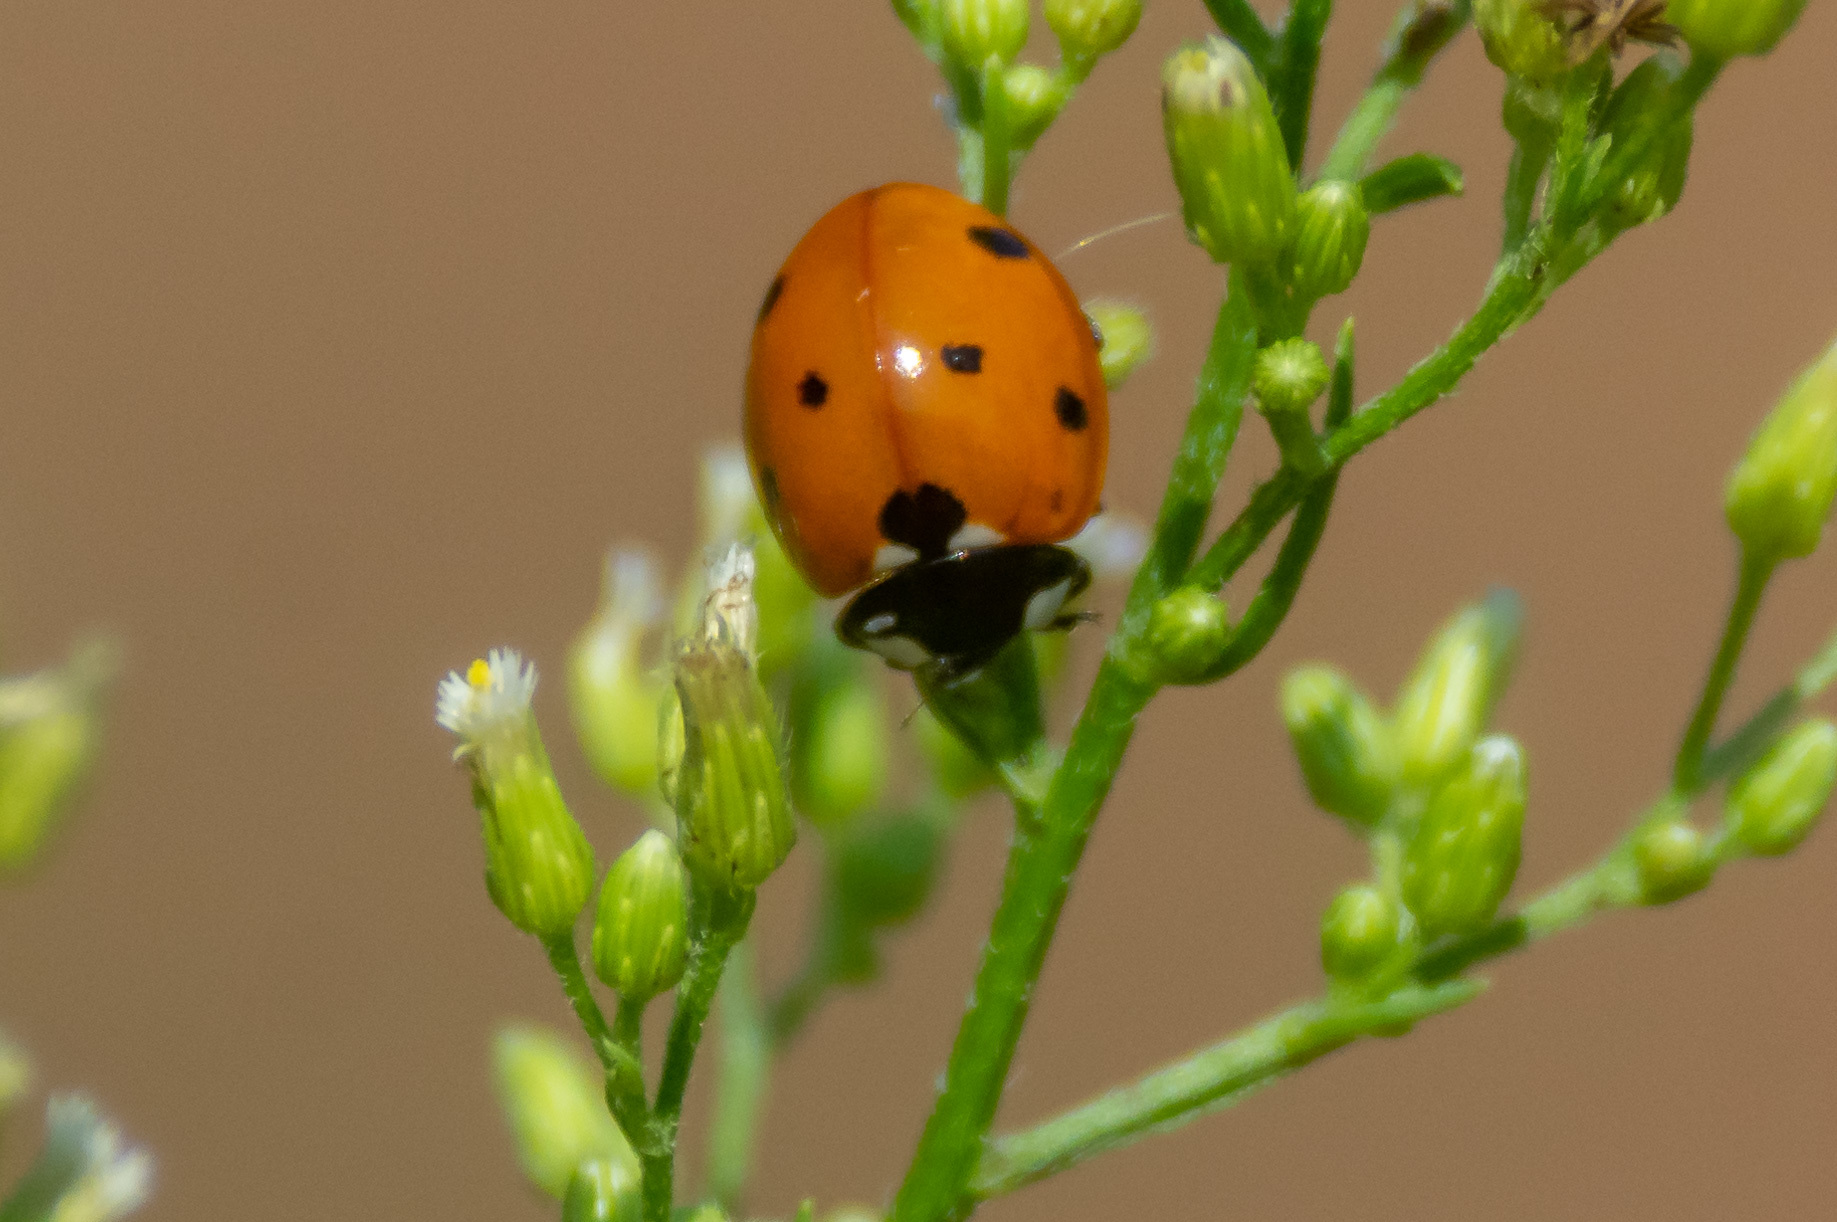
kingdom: Animalia
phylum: Arthropoda
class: Insecta
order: Coleoptera
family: Coccinellidae
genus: Coccinella
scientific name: Coccinella septempunctata
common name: Sevenspotted lady beetle
